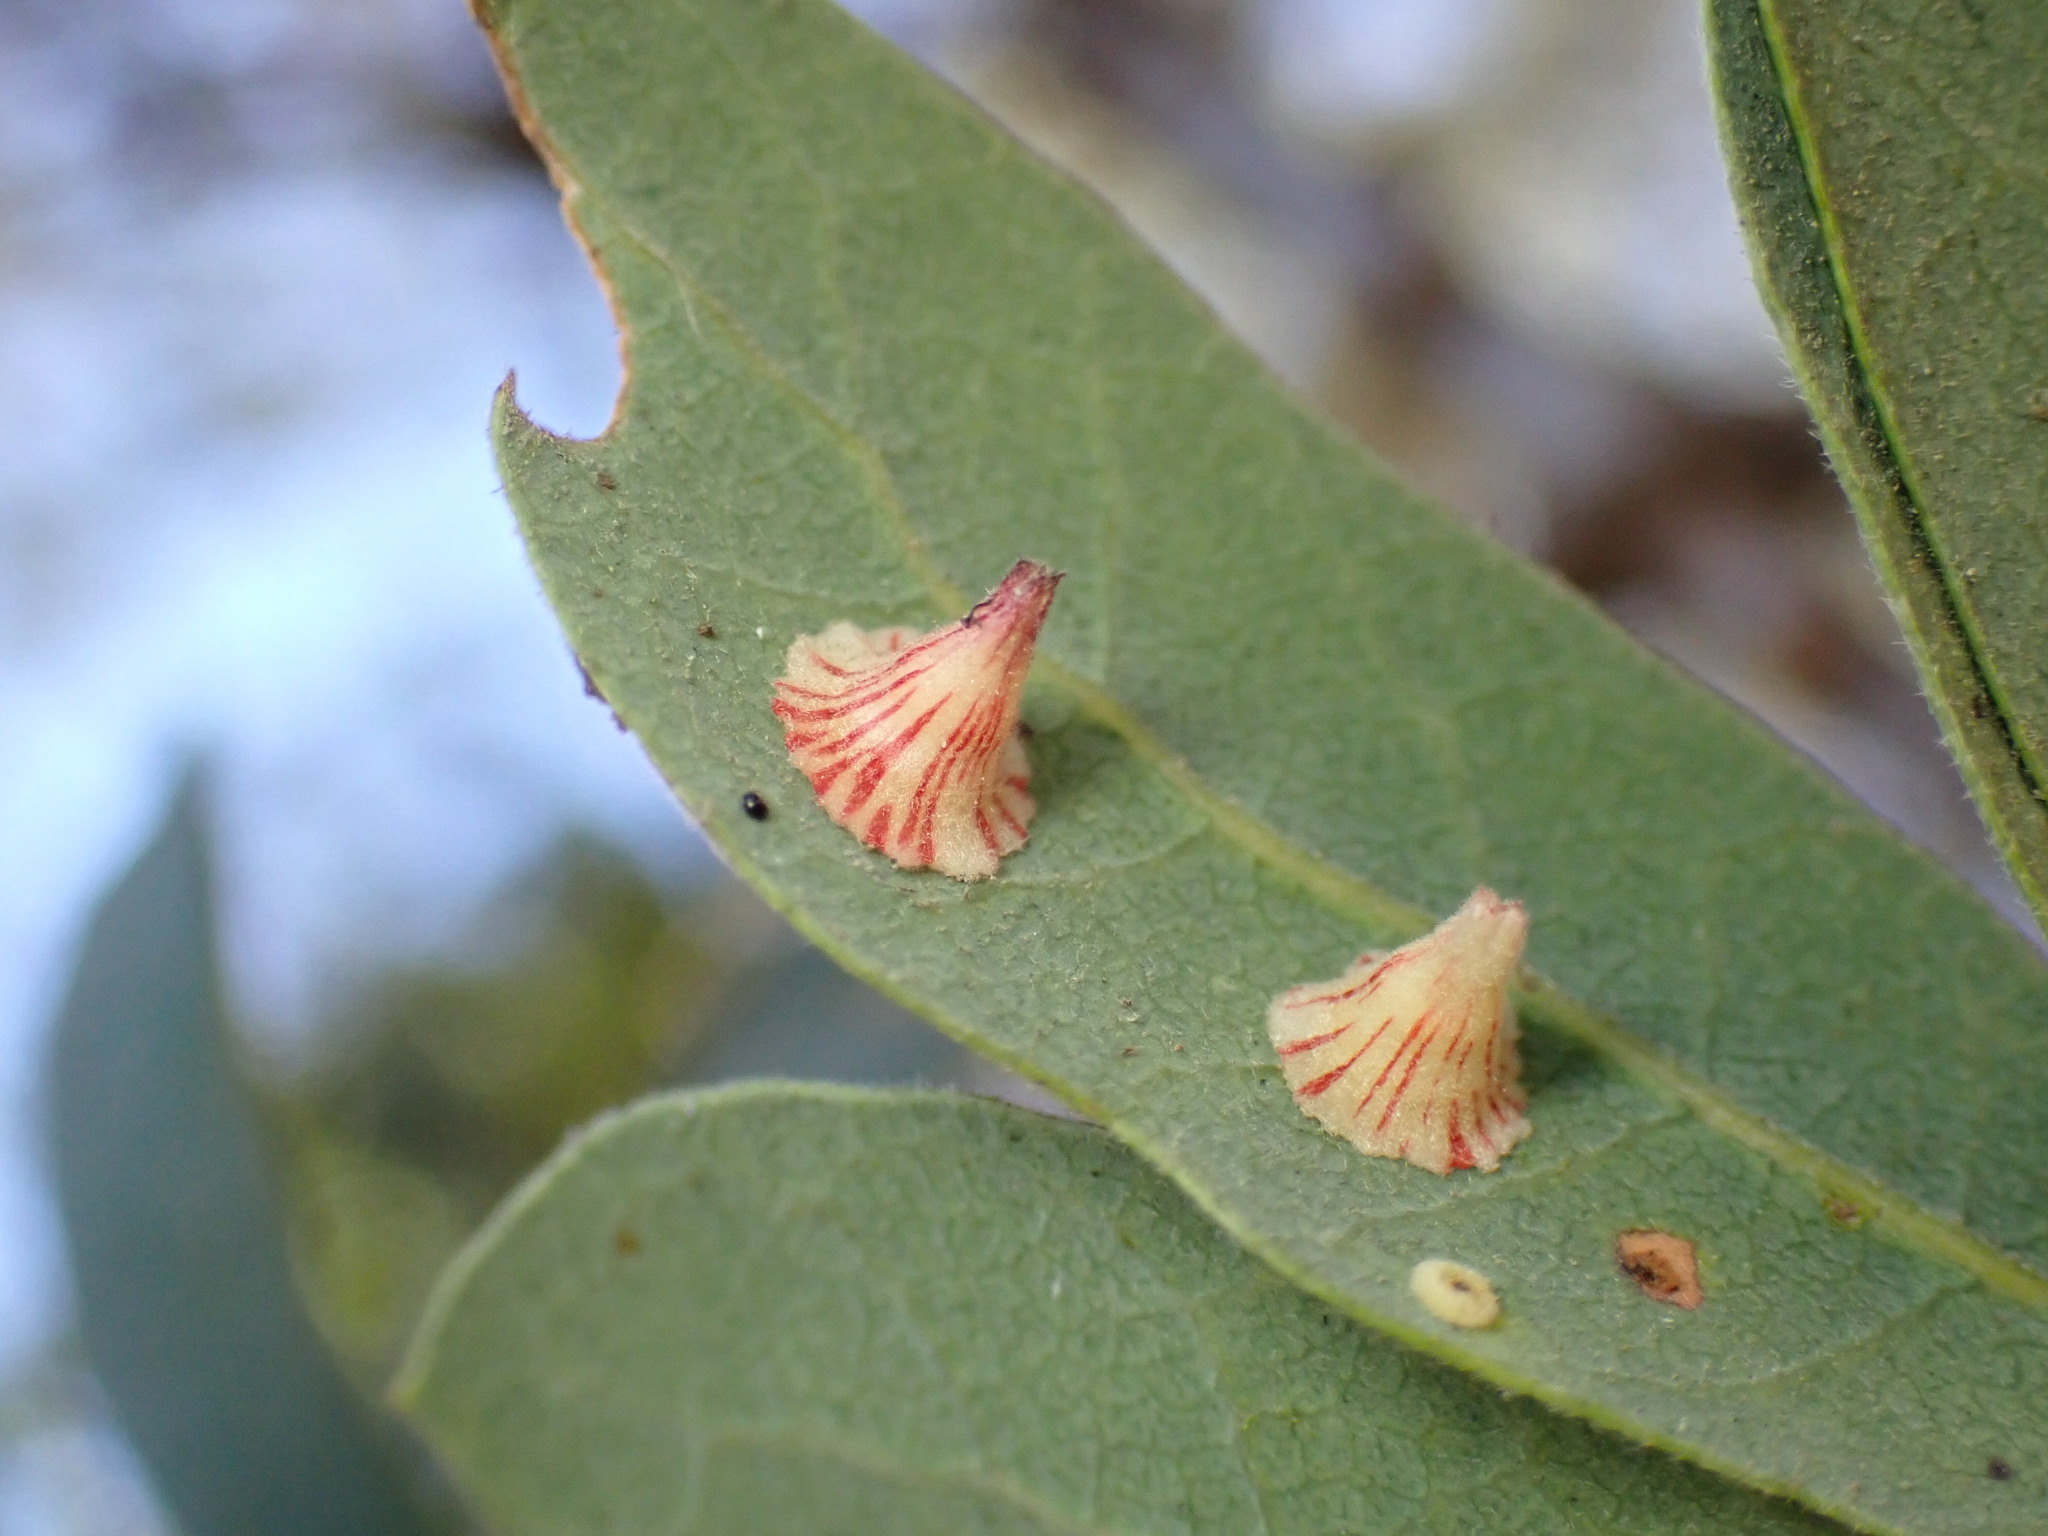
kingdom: Animalia
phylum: Arthropoda
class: Insecta
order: Hymenoptera
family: Cynipidae
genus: Andricus
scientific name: Andricus
